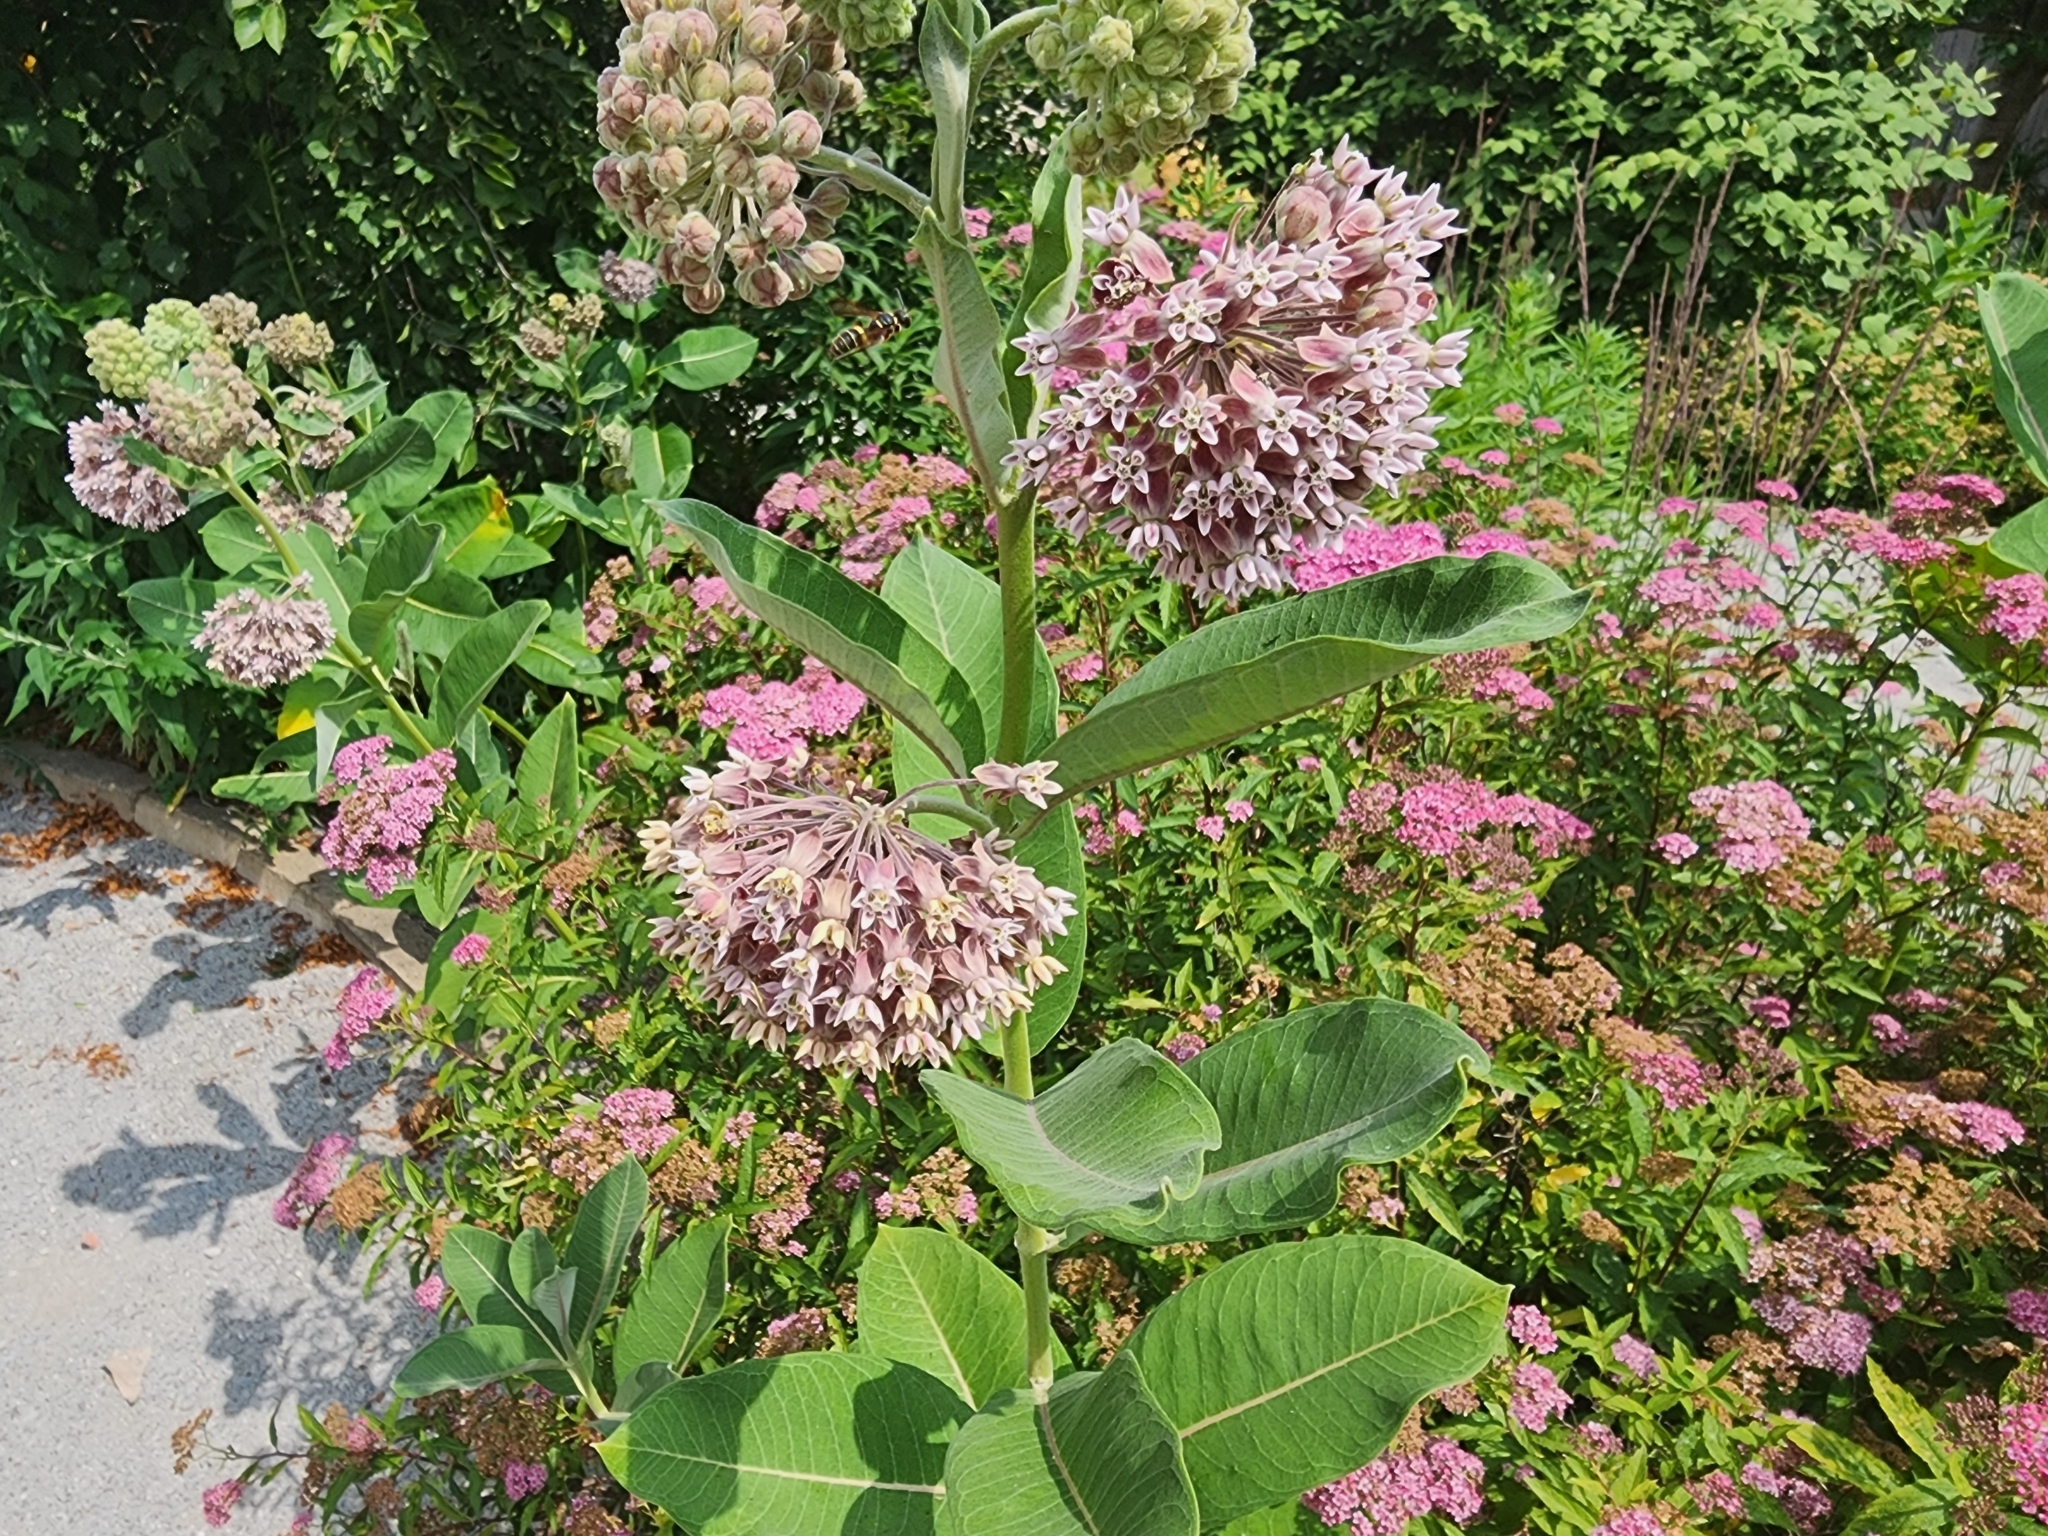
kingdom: Plantae
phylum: Tracheophyta
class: Magnoliopsida
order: Gentianales
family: Apocynaceae
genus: Asclepias
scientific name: Asclepias syriaca
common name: Common milkweed
